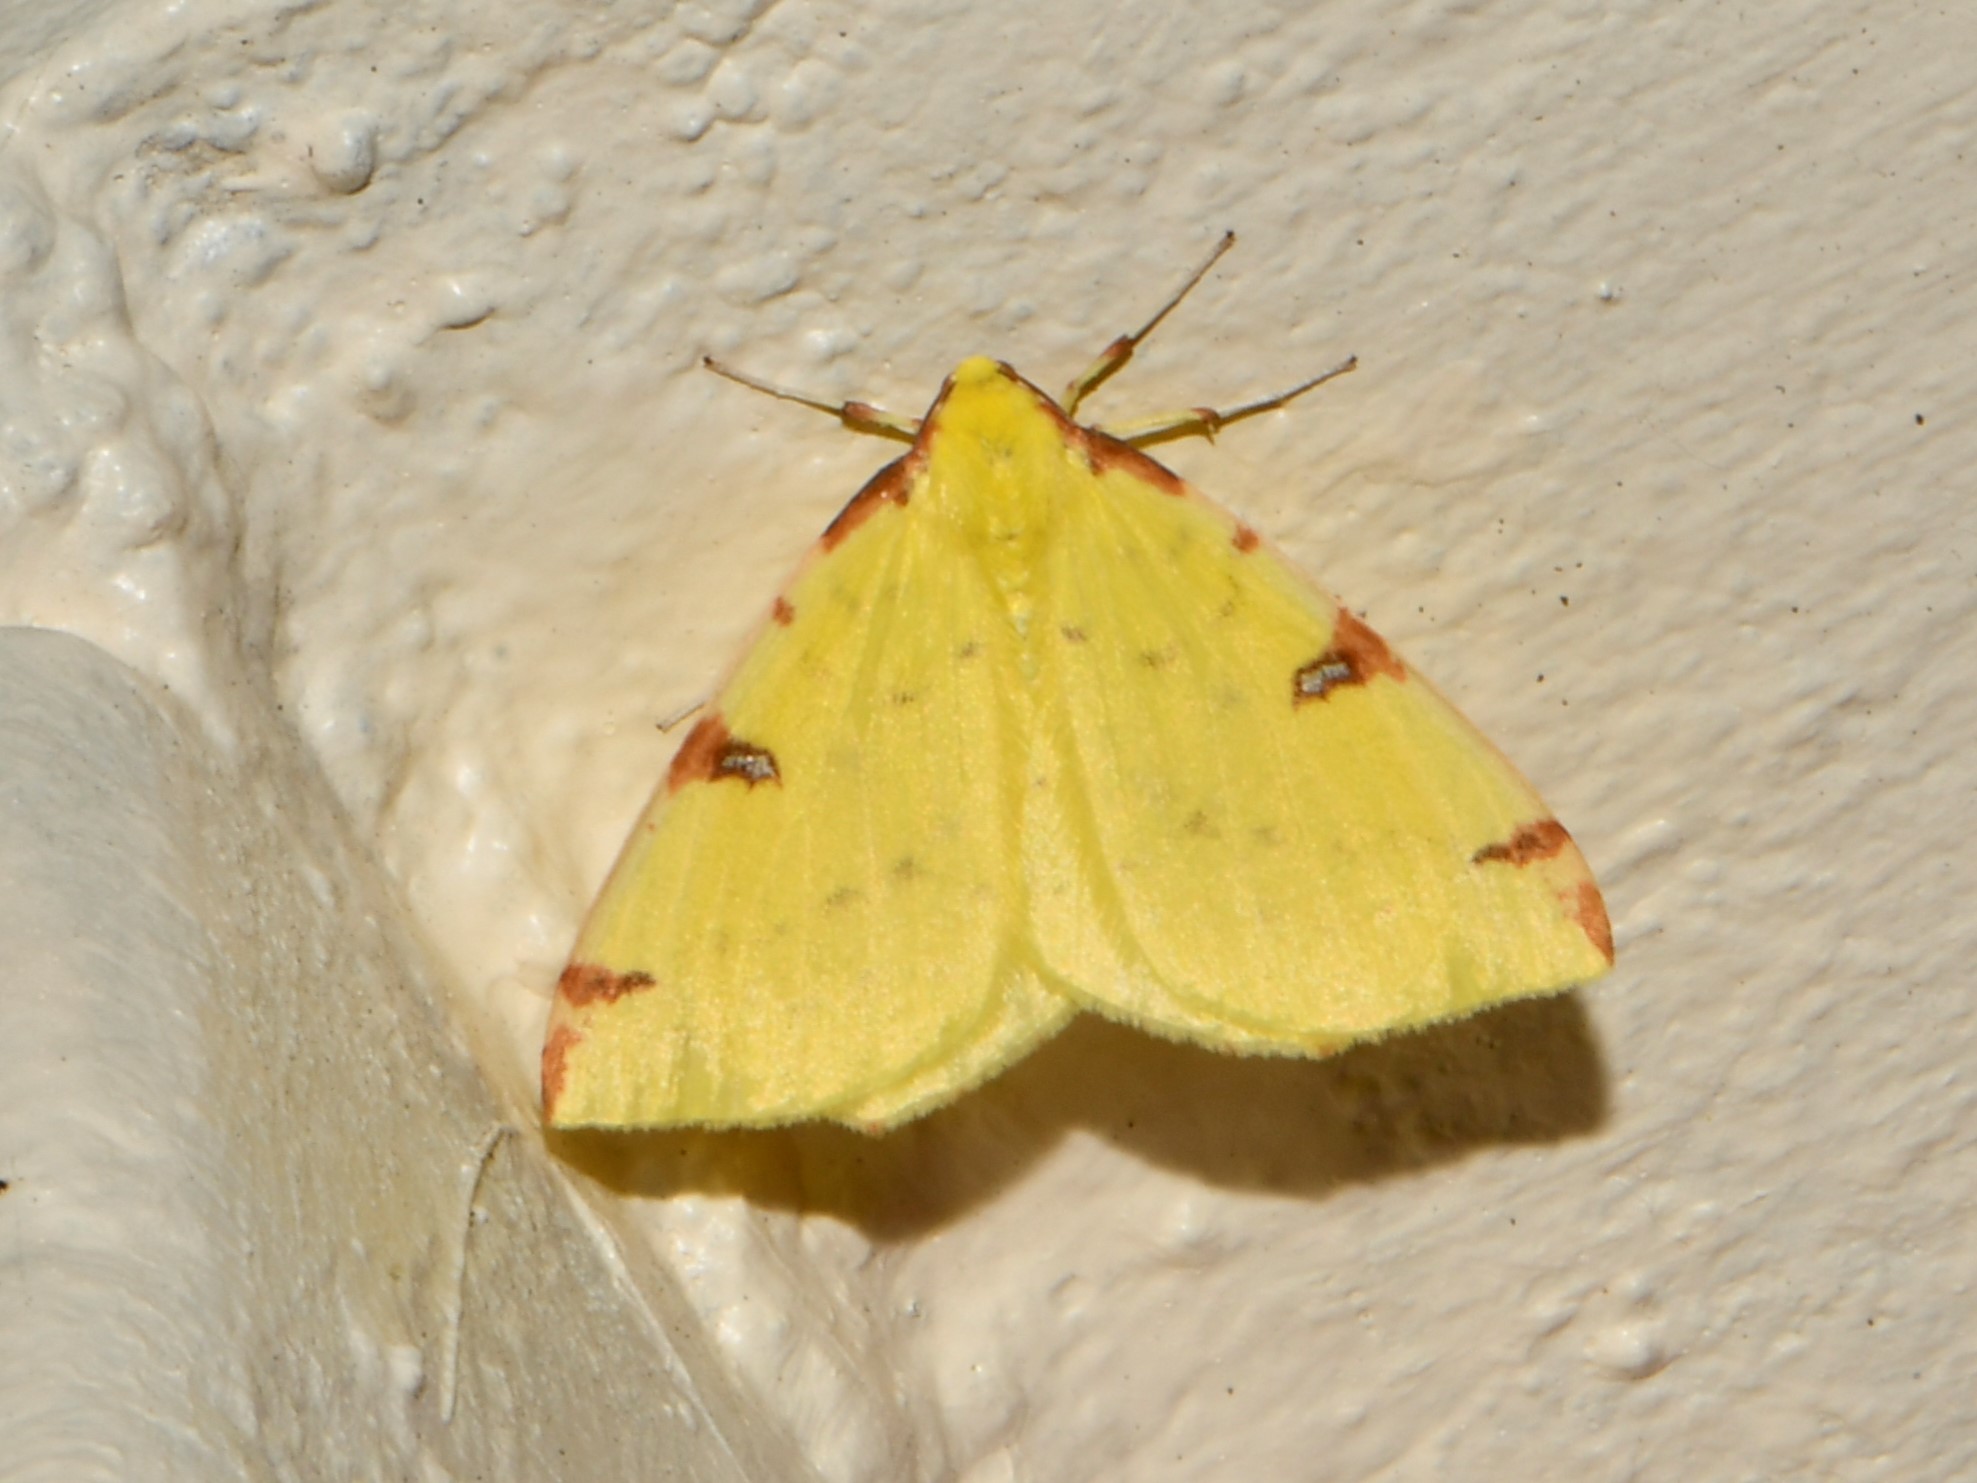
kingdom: Animalia
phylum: Arthropoda
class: Insecta
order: Lepidoptera
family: Geometridae
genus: Opisthograptis
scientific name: Opisthograptis luteolata
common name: Brimstone moth
